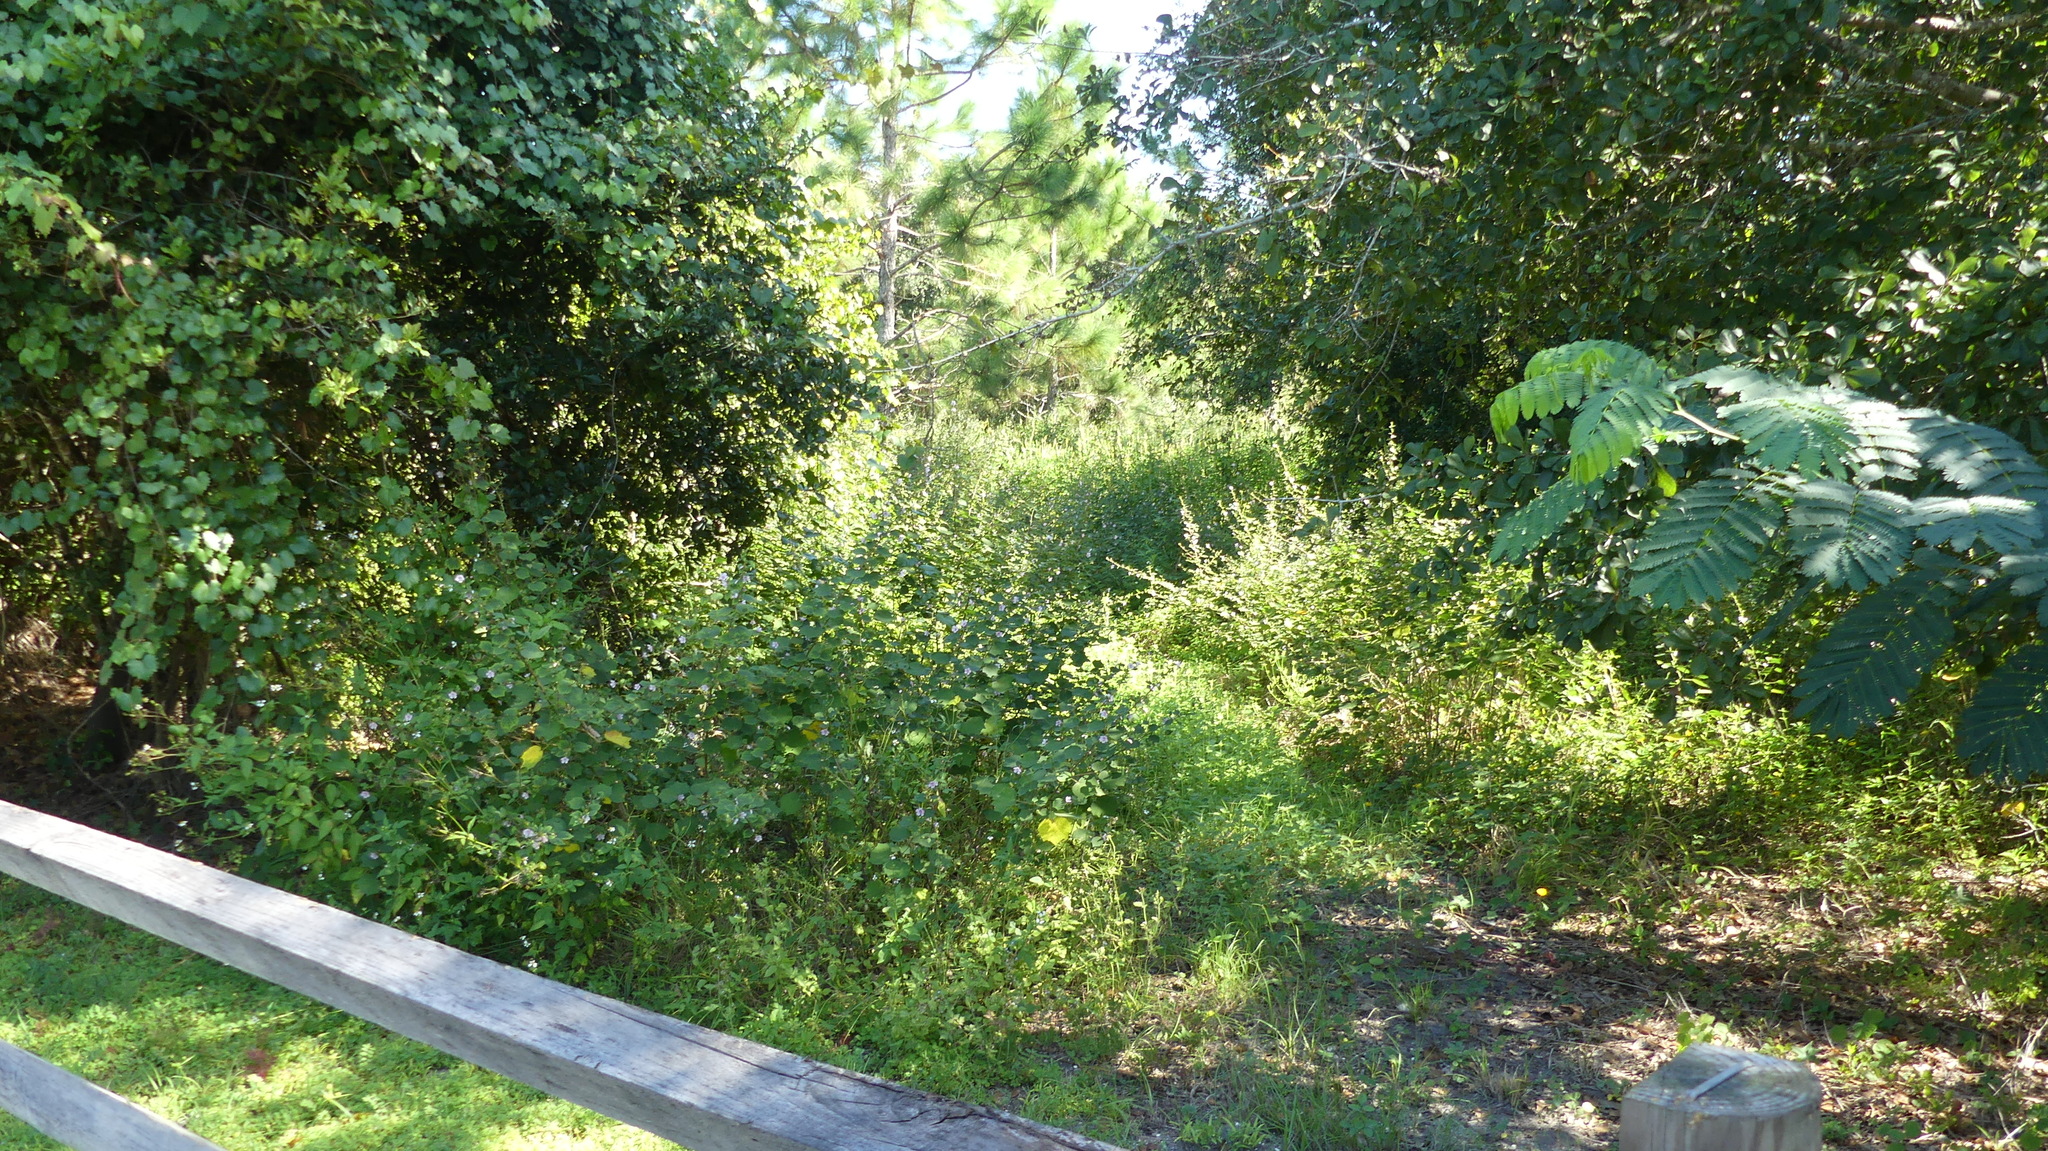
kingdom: Plantae
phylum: Tracheophyta
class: Magnoliopsida
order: Malvales
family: Malvaceae
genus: Urena
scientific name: Urena lobata
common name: Caesarweed
